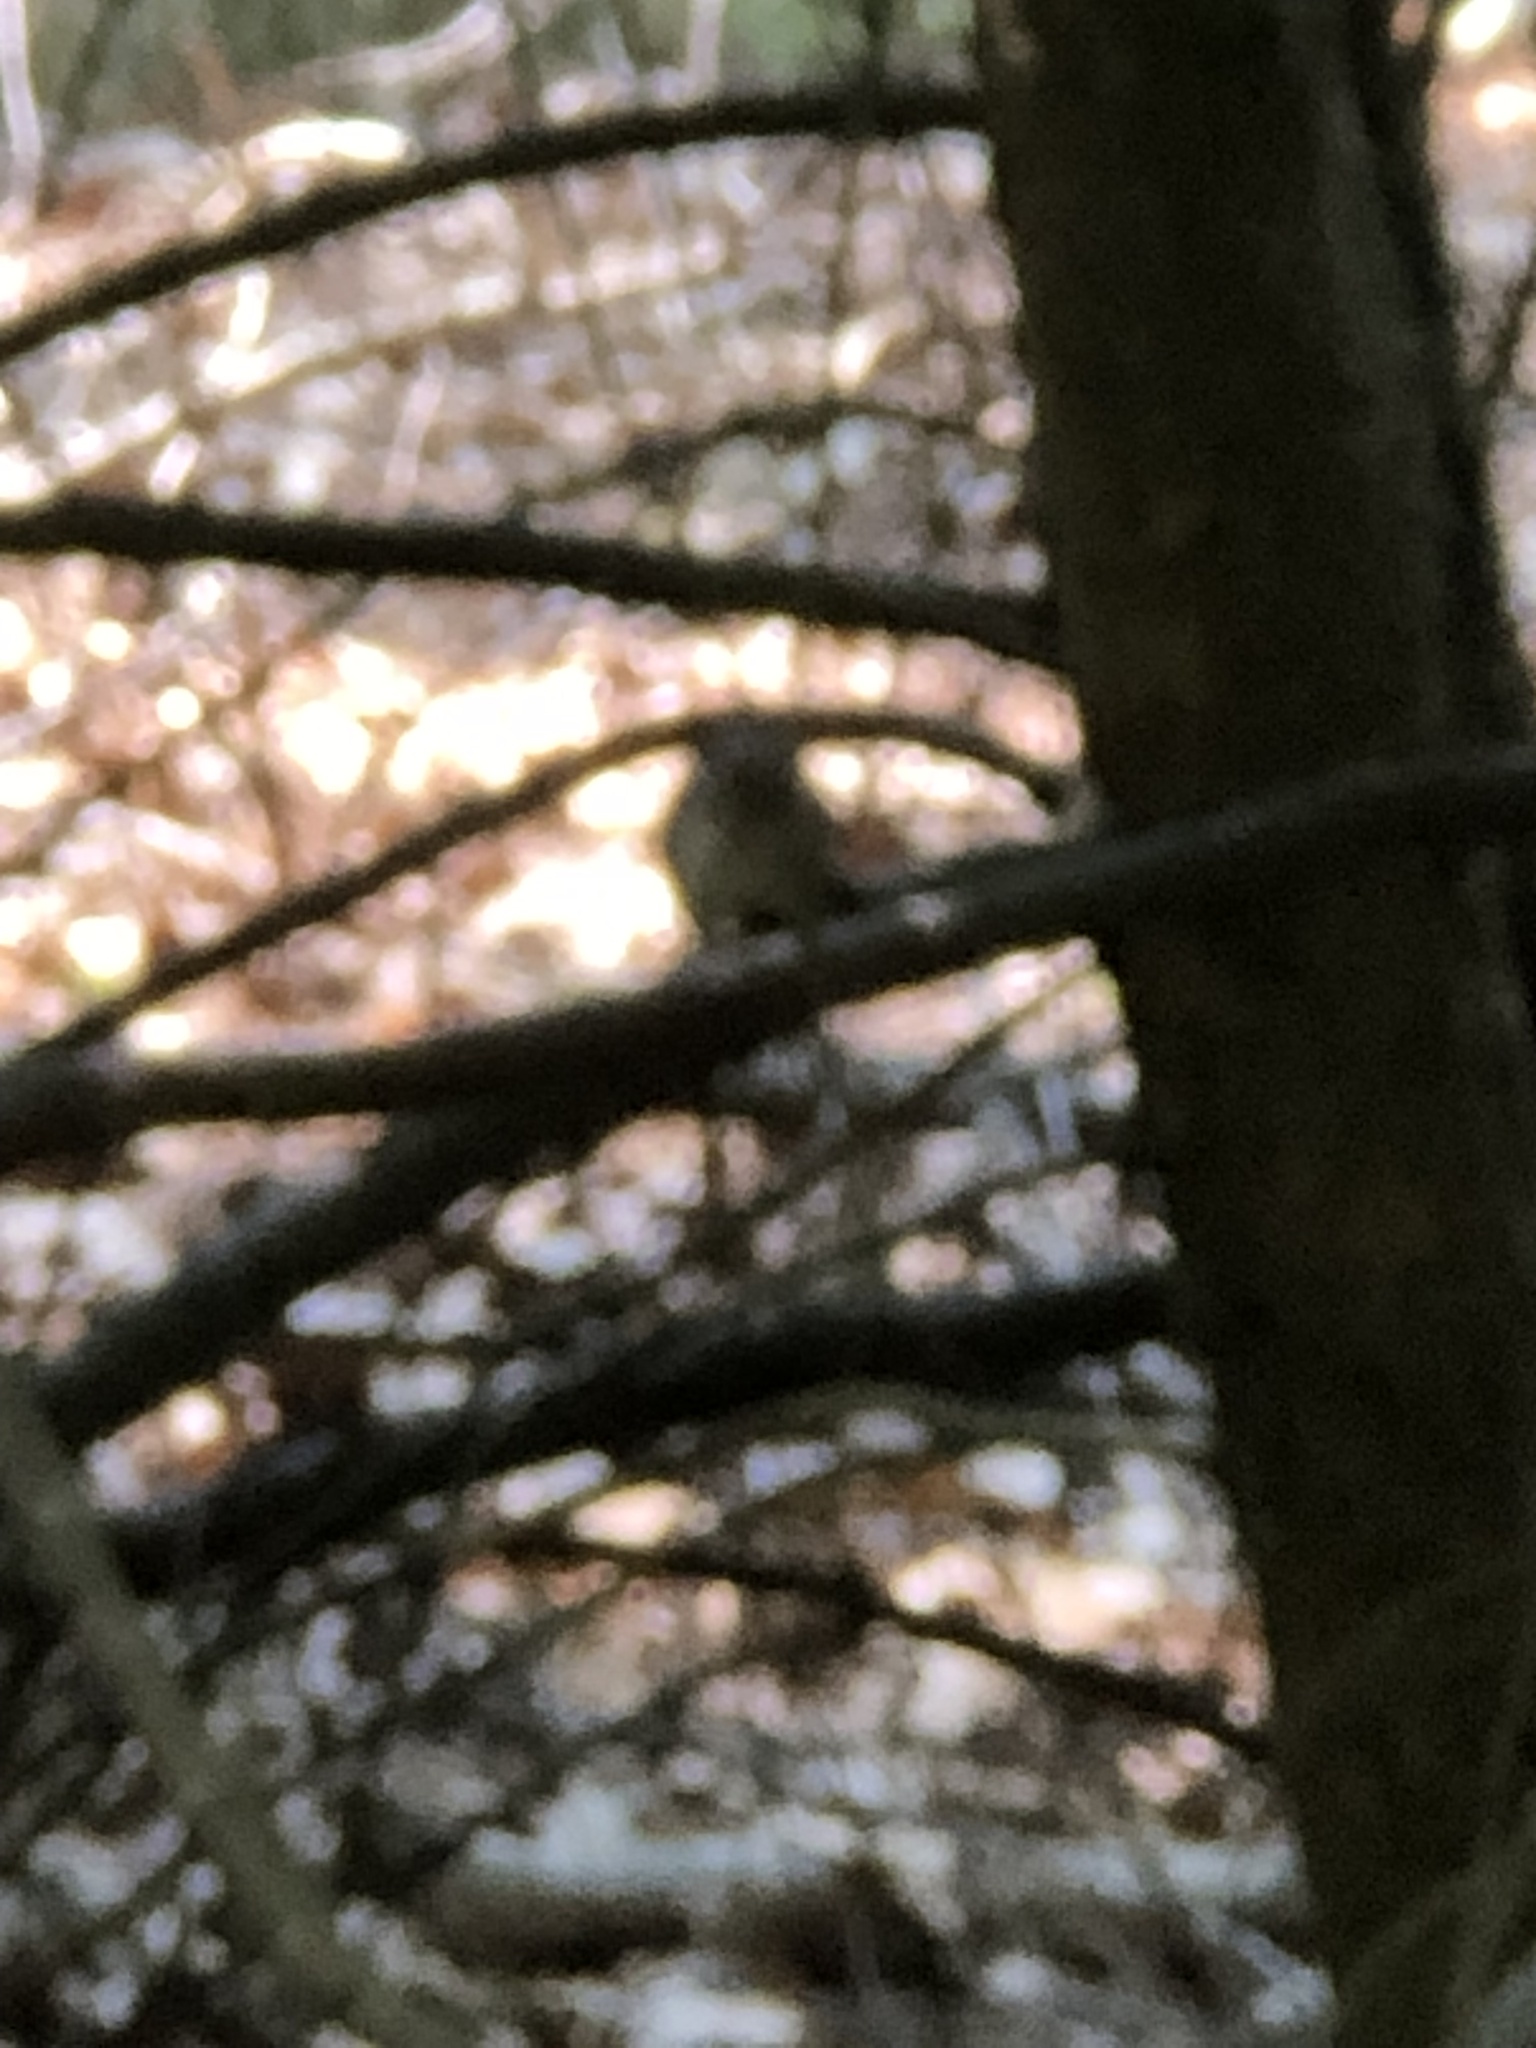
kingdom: Animalia
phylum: Chordata
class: Mammalia
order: Rodentia
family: Sciuridae
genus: Tamias
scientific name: Tamias striatus
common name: Eastern chipmunk
